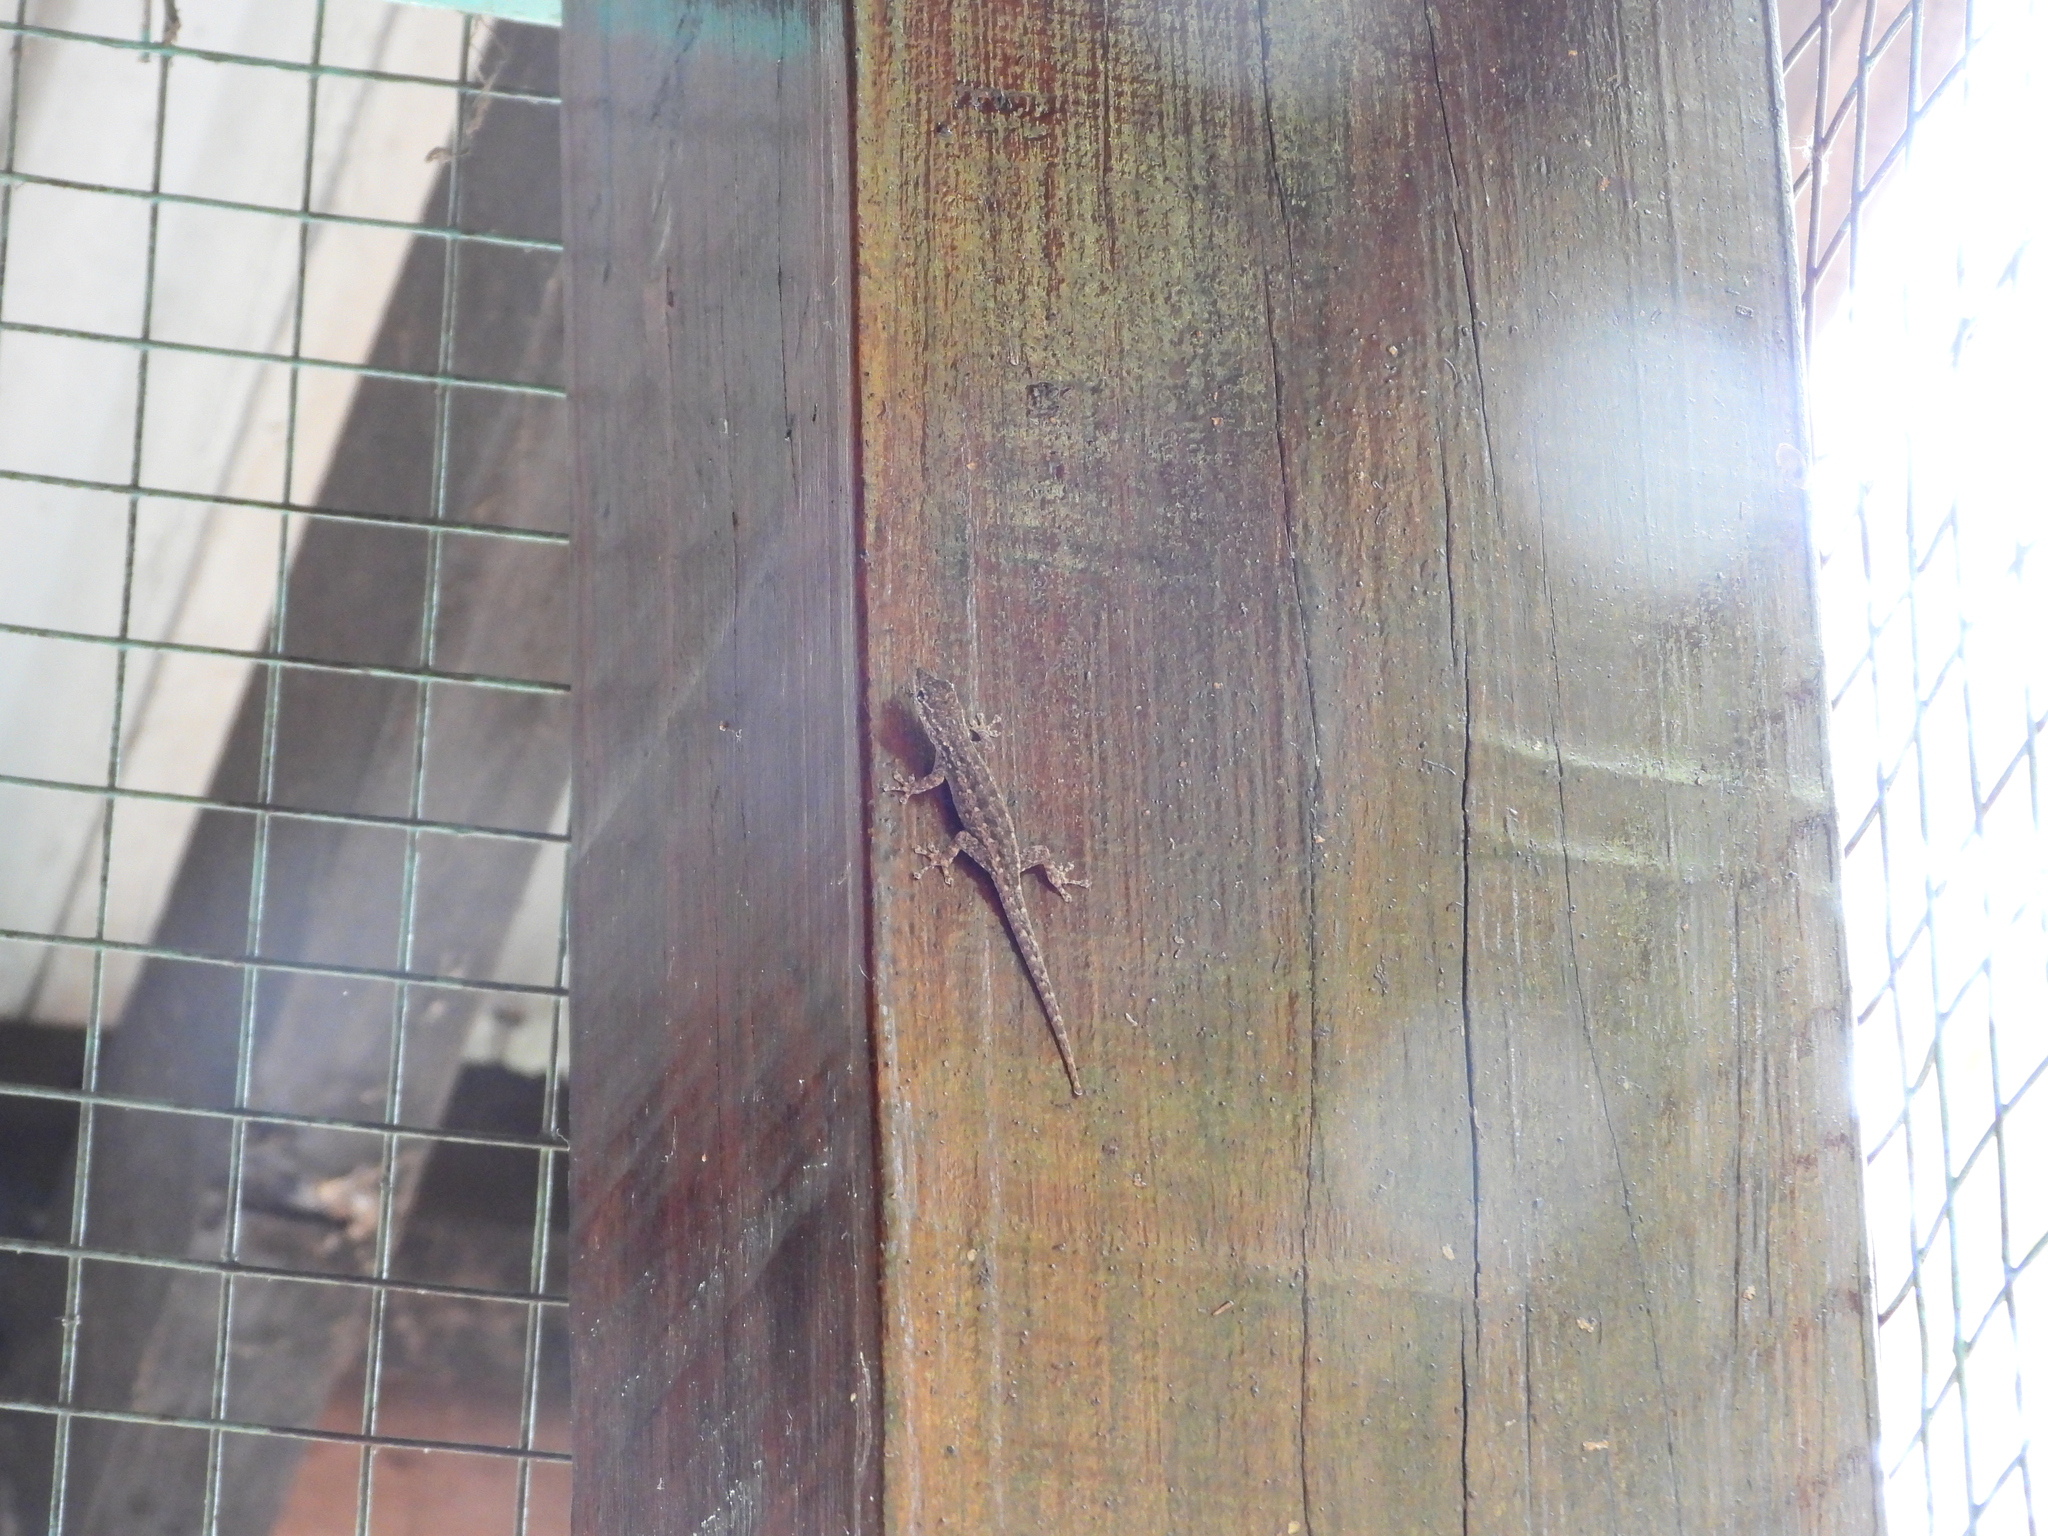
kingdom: Animalia
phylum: Chordata
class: Squamata
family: Gekkonidae
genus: Lygodactylus
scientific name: Lygodactylus chobiensis
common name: Okavango dwarf gecko
